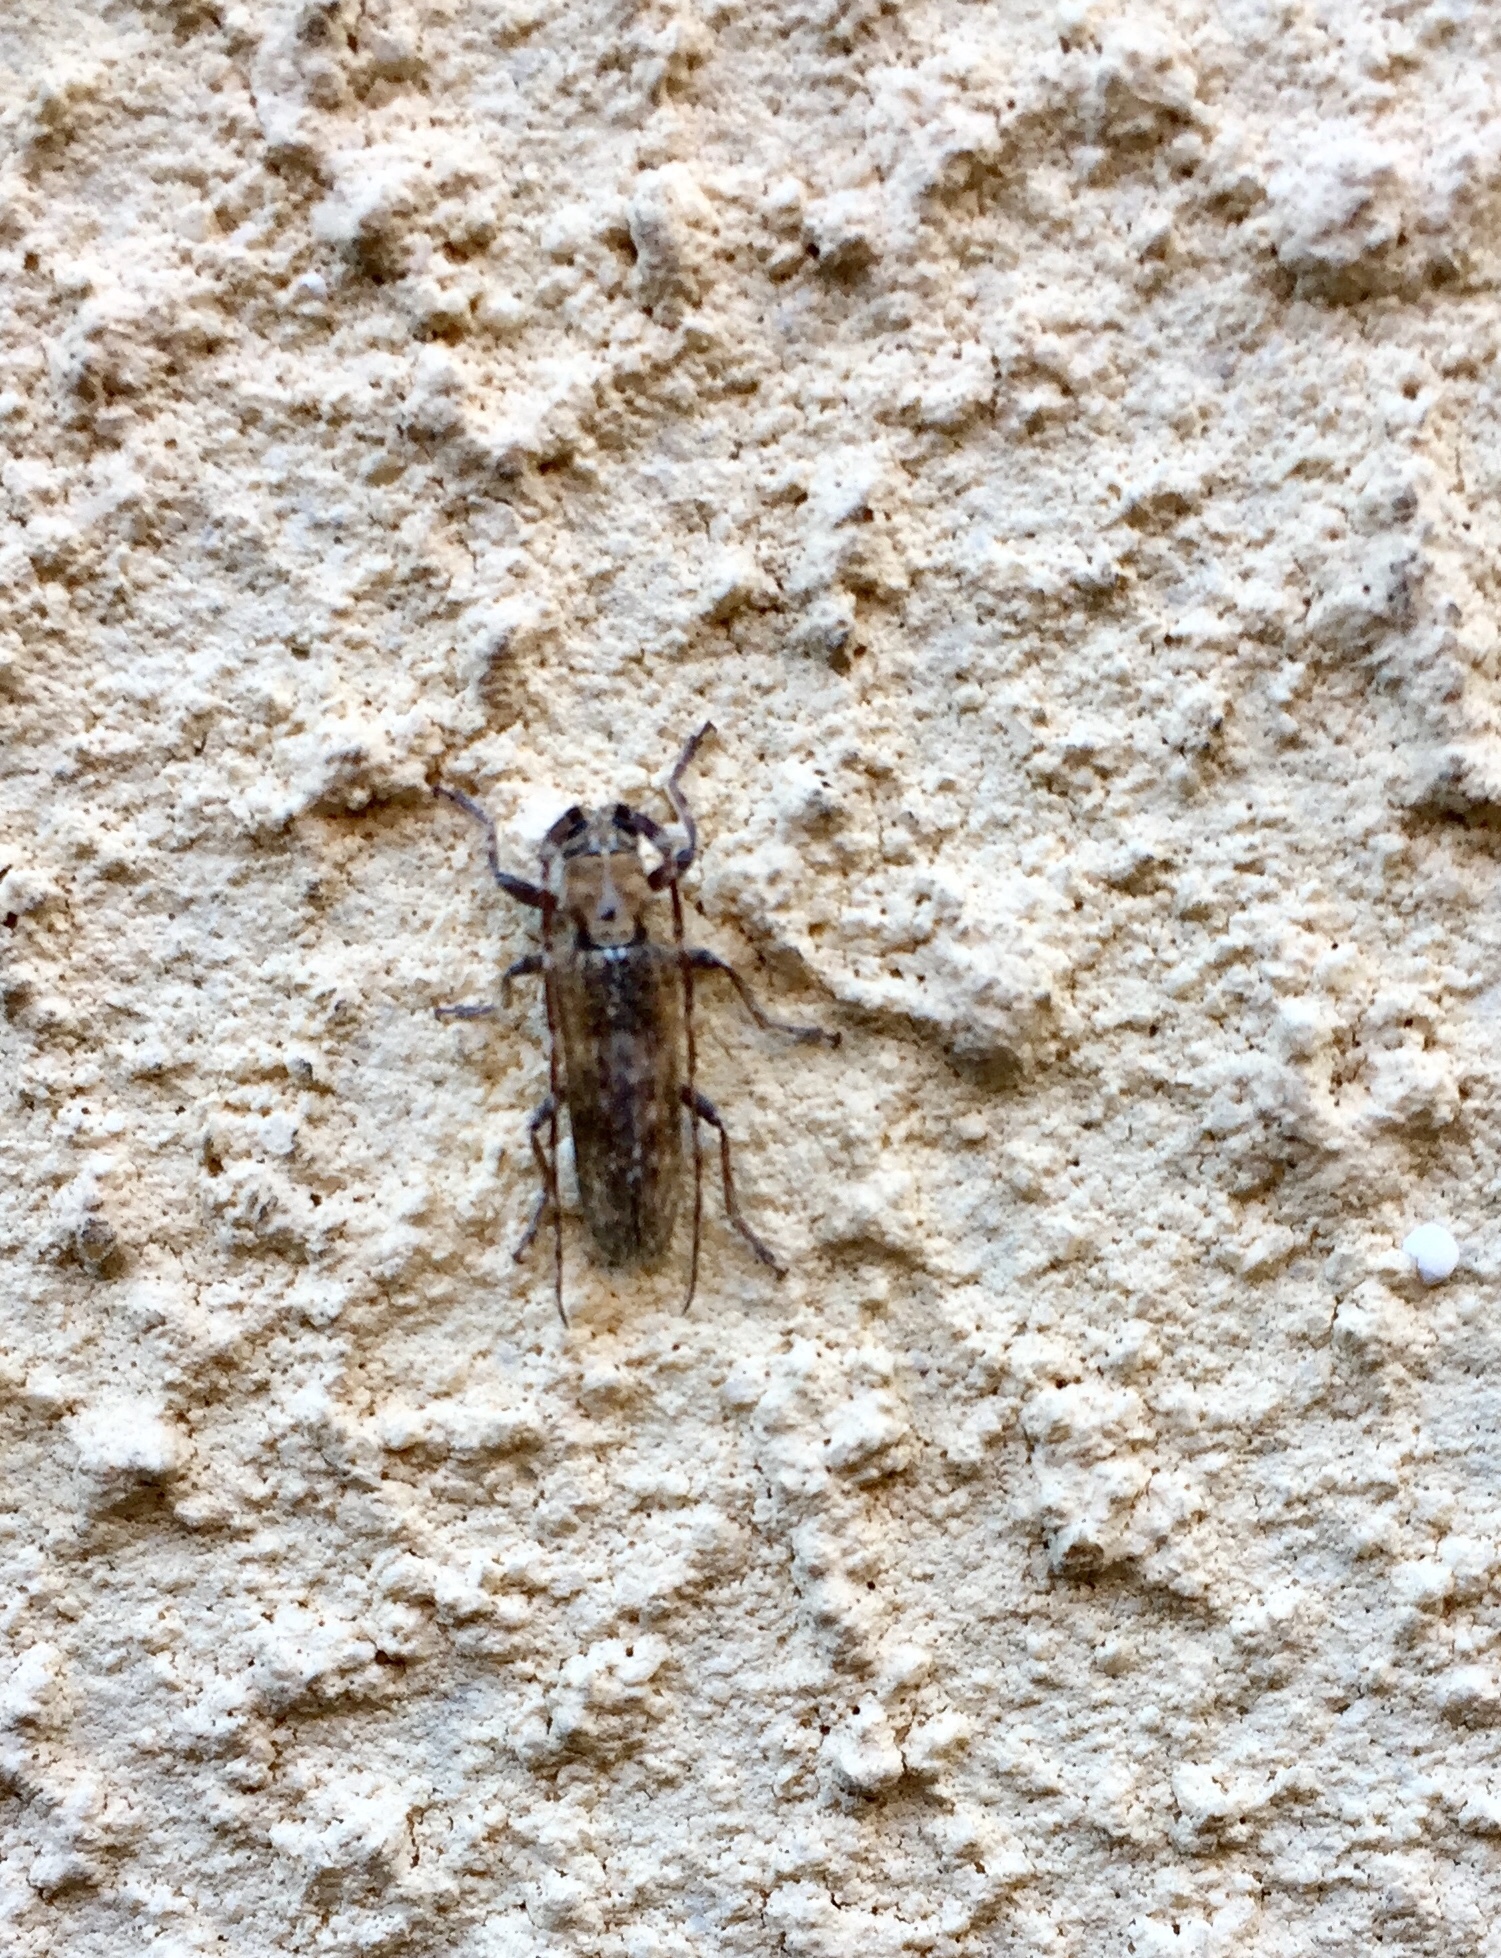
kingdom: Animalia
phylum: Arthropoda
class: Insecta
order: Coleoptera
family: Cerambycidae
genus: Deroplia
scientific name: Deroplia niveopicta
